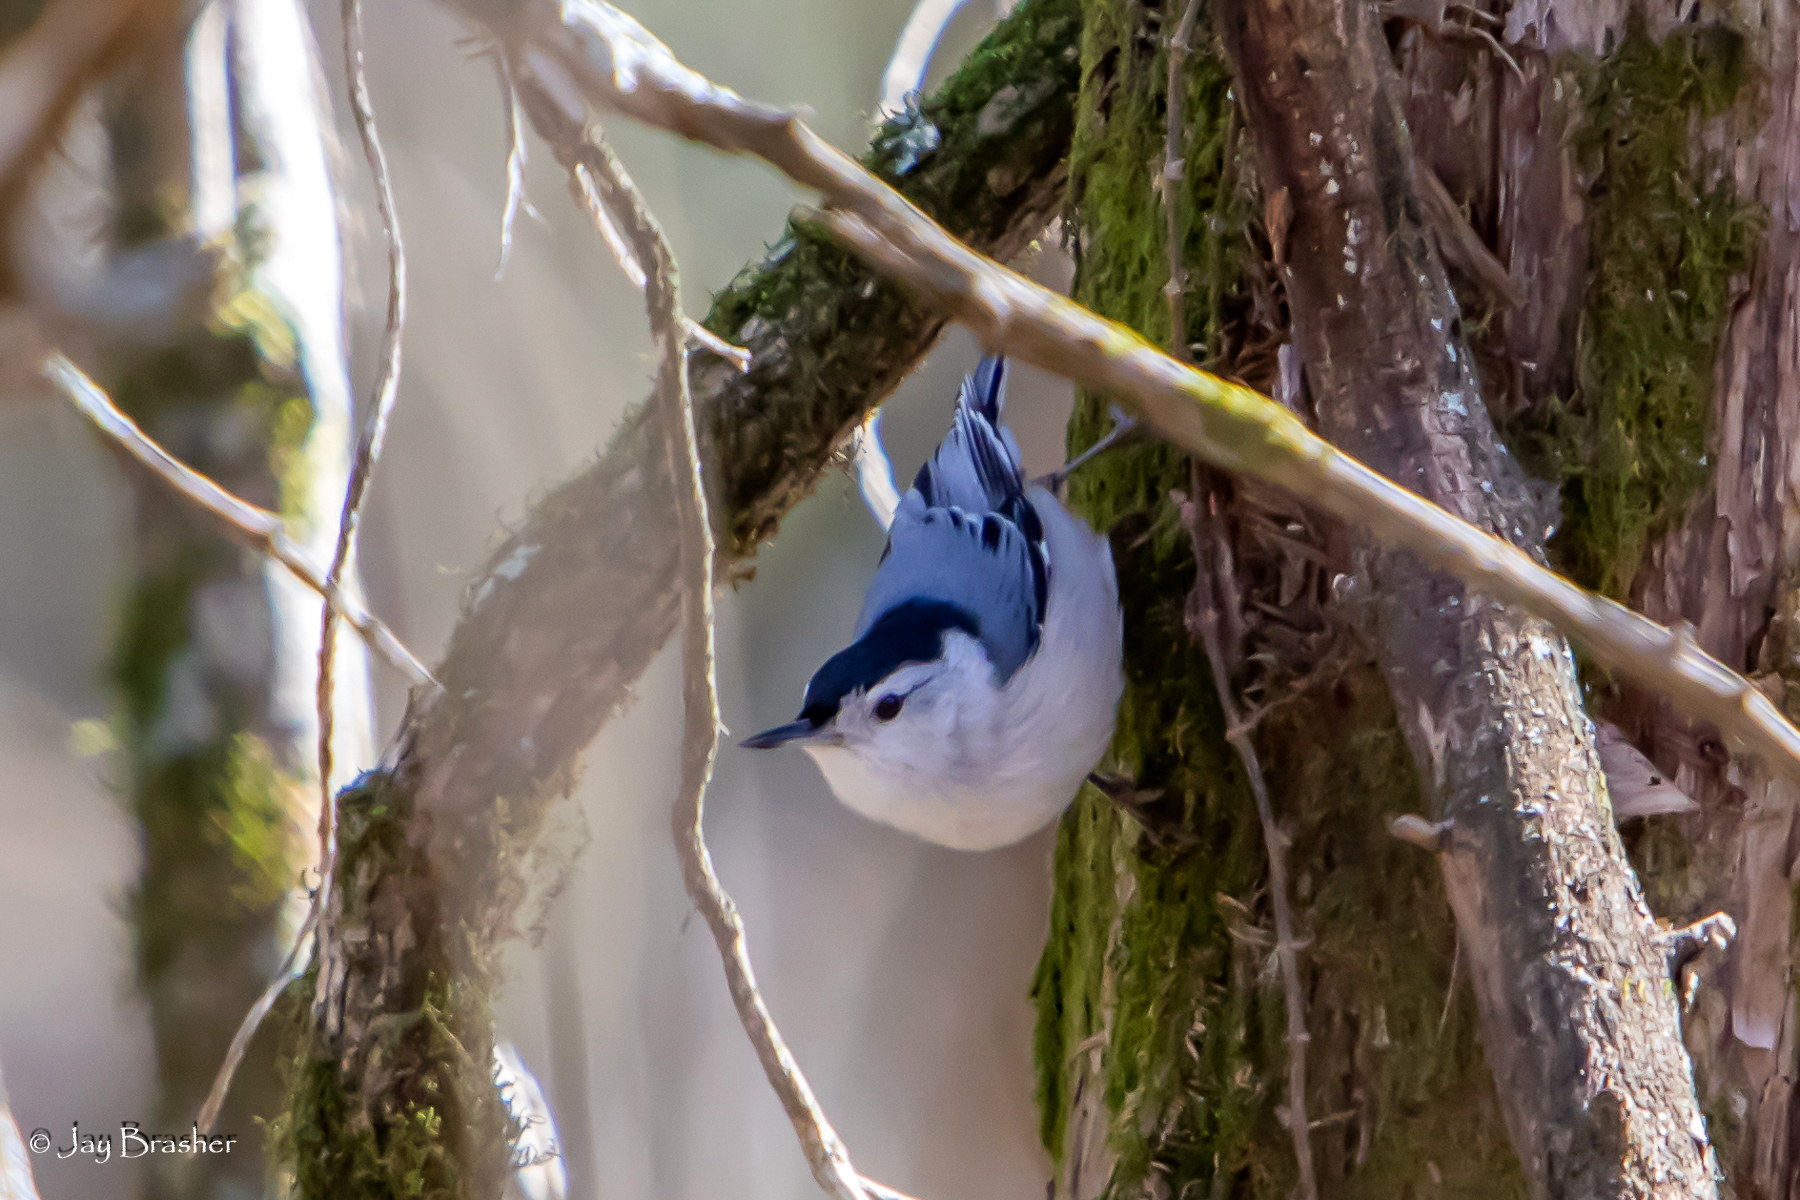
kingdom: Animalia
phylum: Chordata
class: Aves
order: Passeriformes
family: Sittidae
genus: Sitta
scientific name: Sitta carolinensis
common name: White-breasted nuthatch
